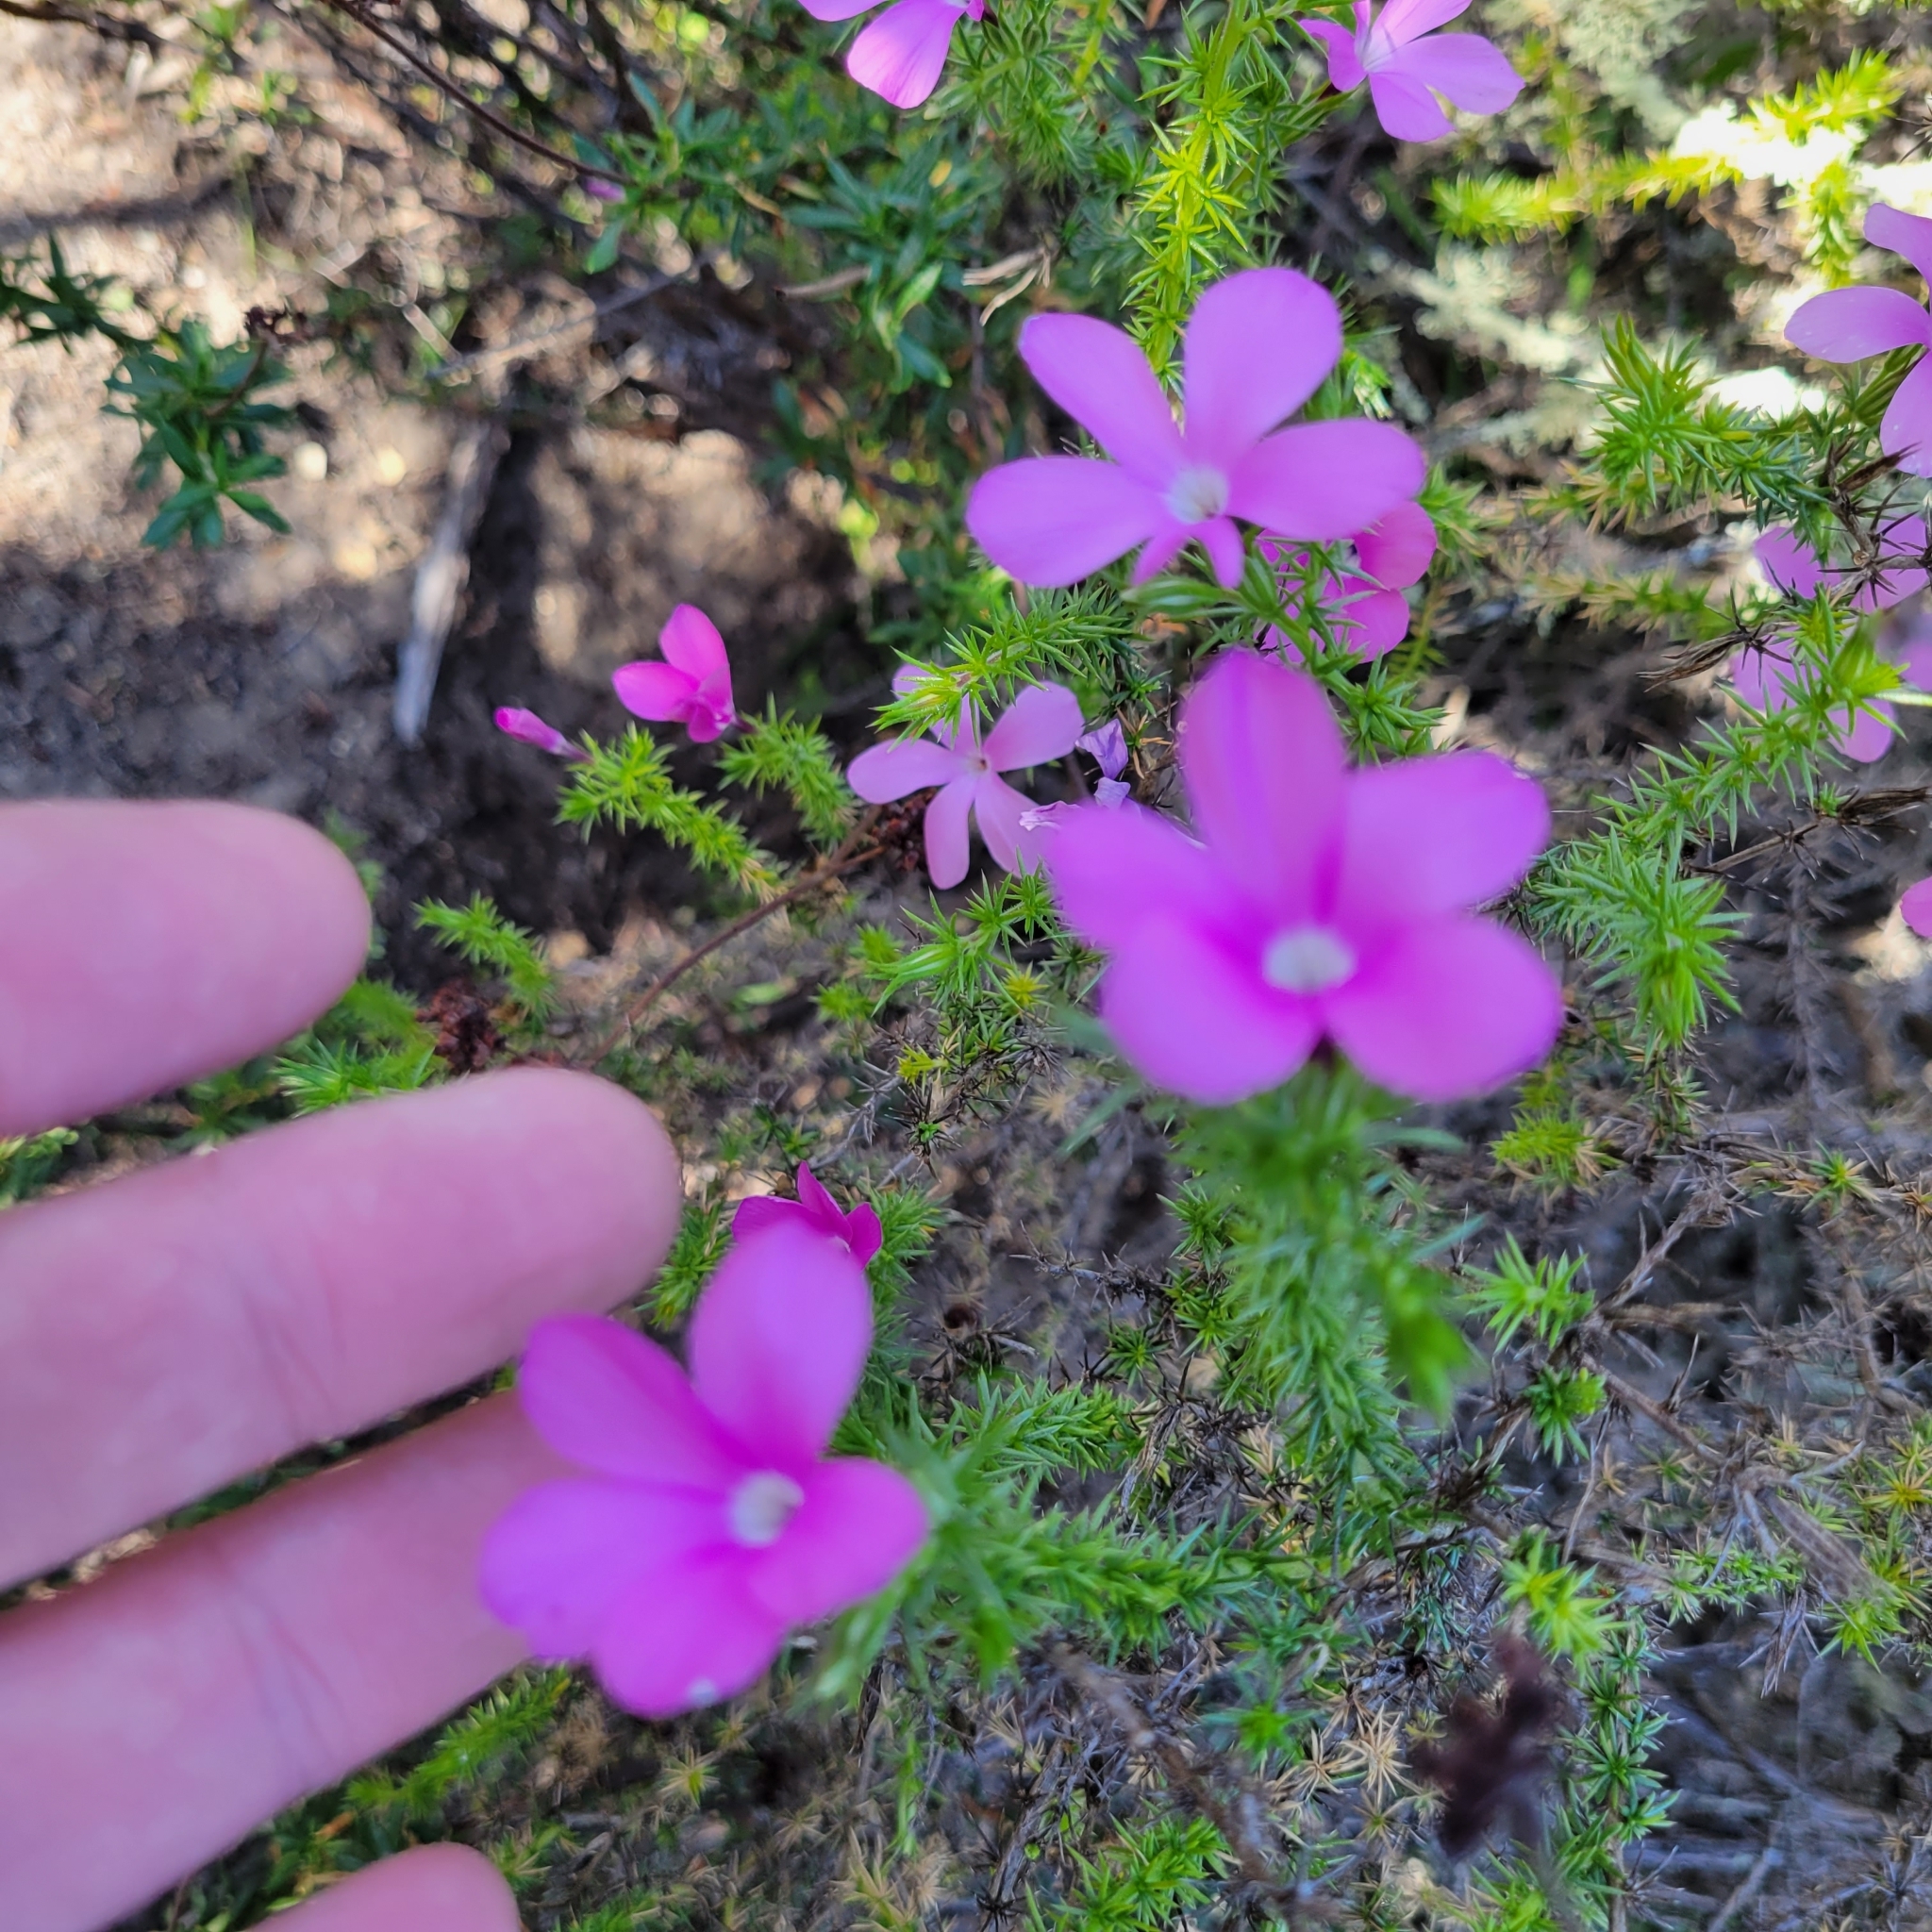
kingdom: Plantae
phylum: Tracheophyta
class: Magnoliopsida
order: Ericales
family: Polemoniaceae
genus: Linanthus
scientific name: Linanthus californicus
